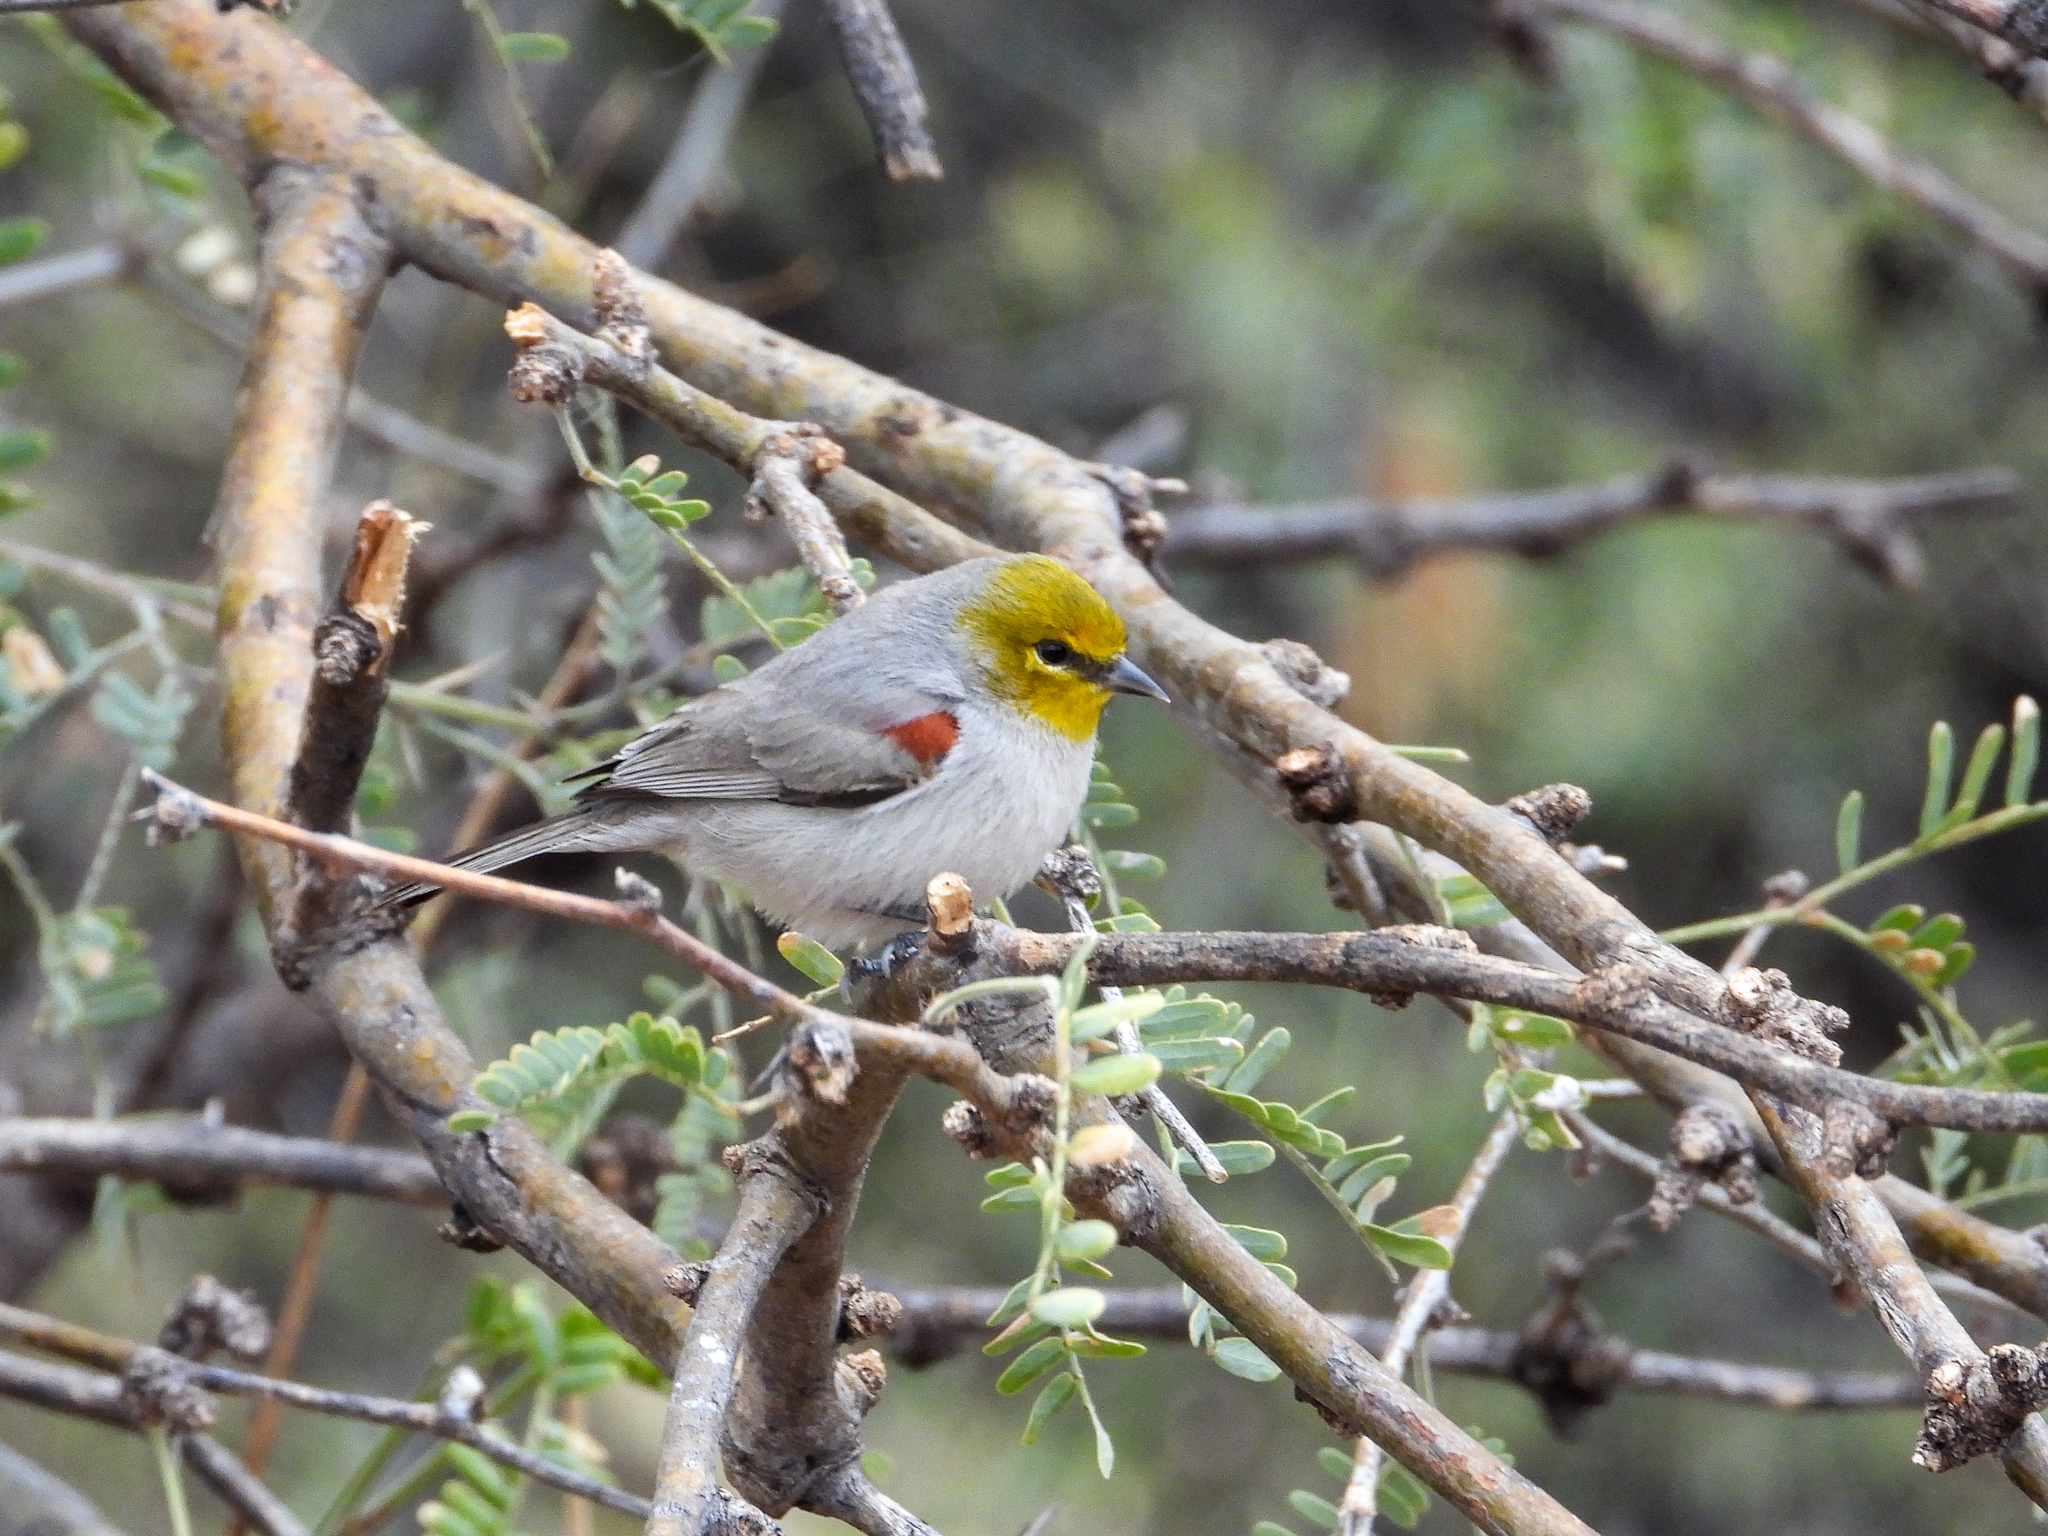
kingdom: Animalia
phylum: Chordata
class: Aves
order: Passeriformes
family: Remizidae
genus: Auriparus
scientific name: Auriparus flaviceps
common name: Verdin
